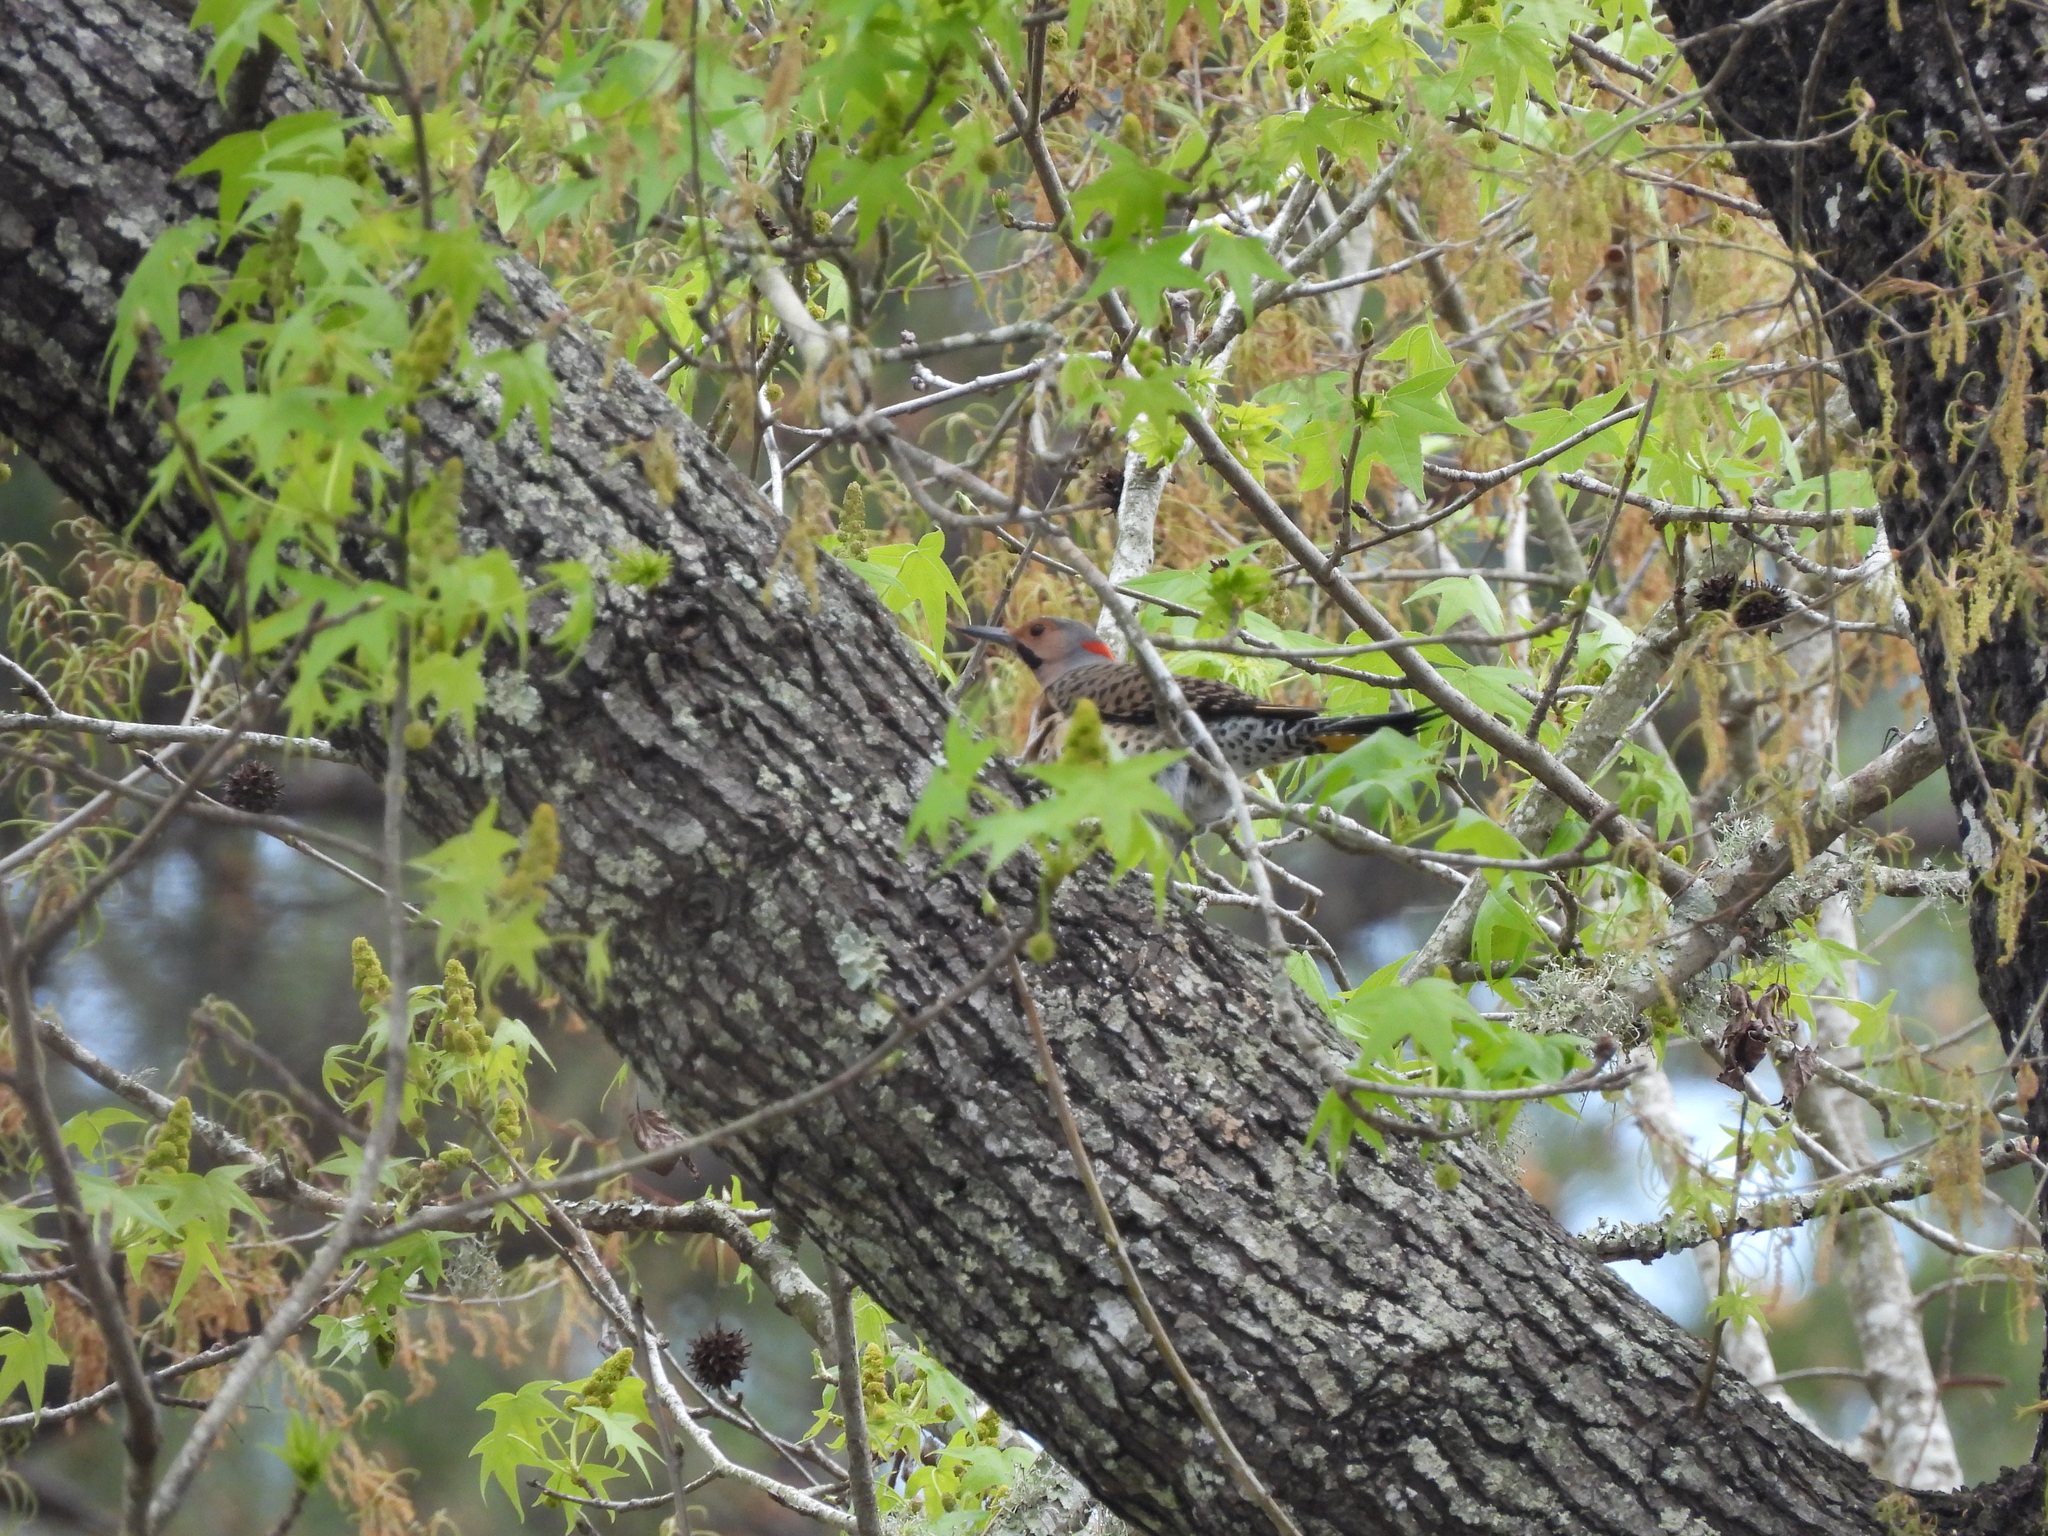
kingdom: Animalia
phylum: Chordata
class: Aves
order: Piciformes
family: Picidae
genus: Colaptes
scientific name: Colaptes auratus
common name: Northern flicker
